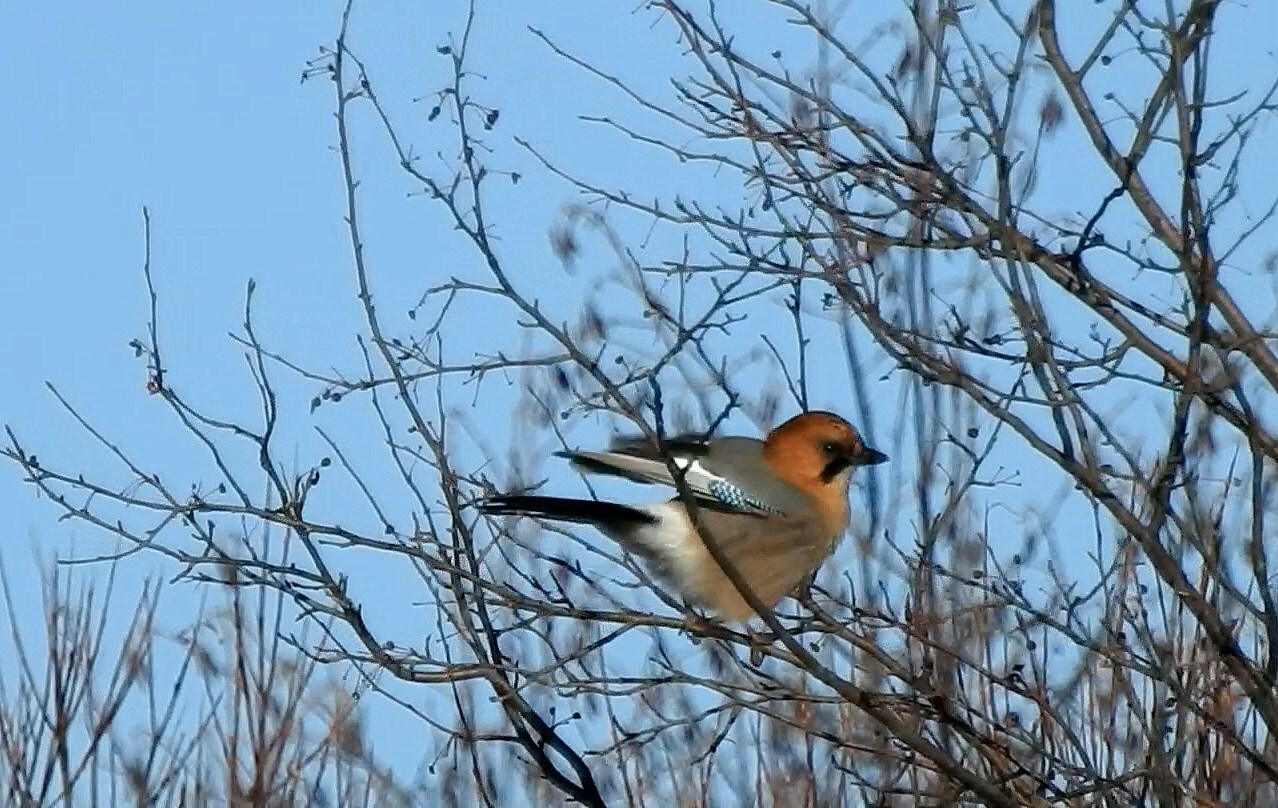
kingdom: Animalia
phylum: Chordata
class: Aves
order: Passeriformes
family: Corvidae
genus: Garrulus
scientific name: Garrulus glandarius
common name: Eurasian jay
